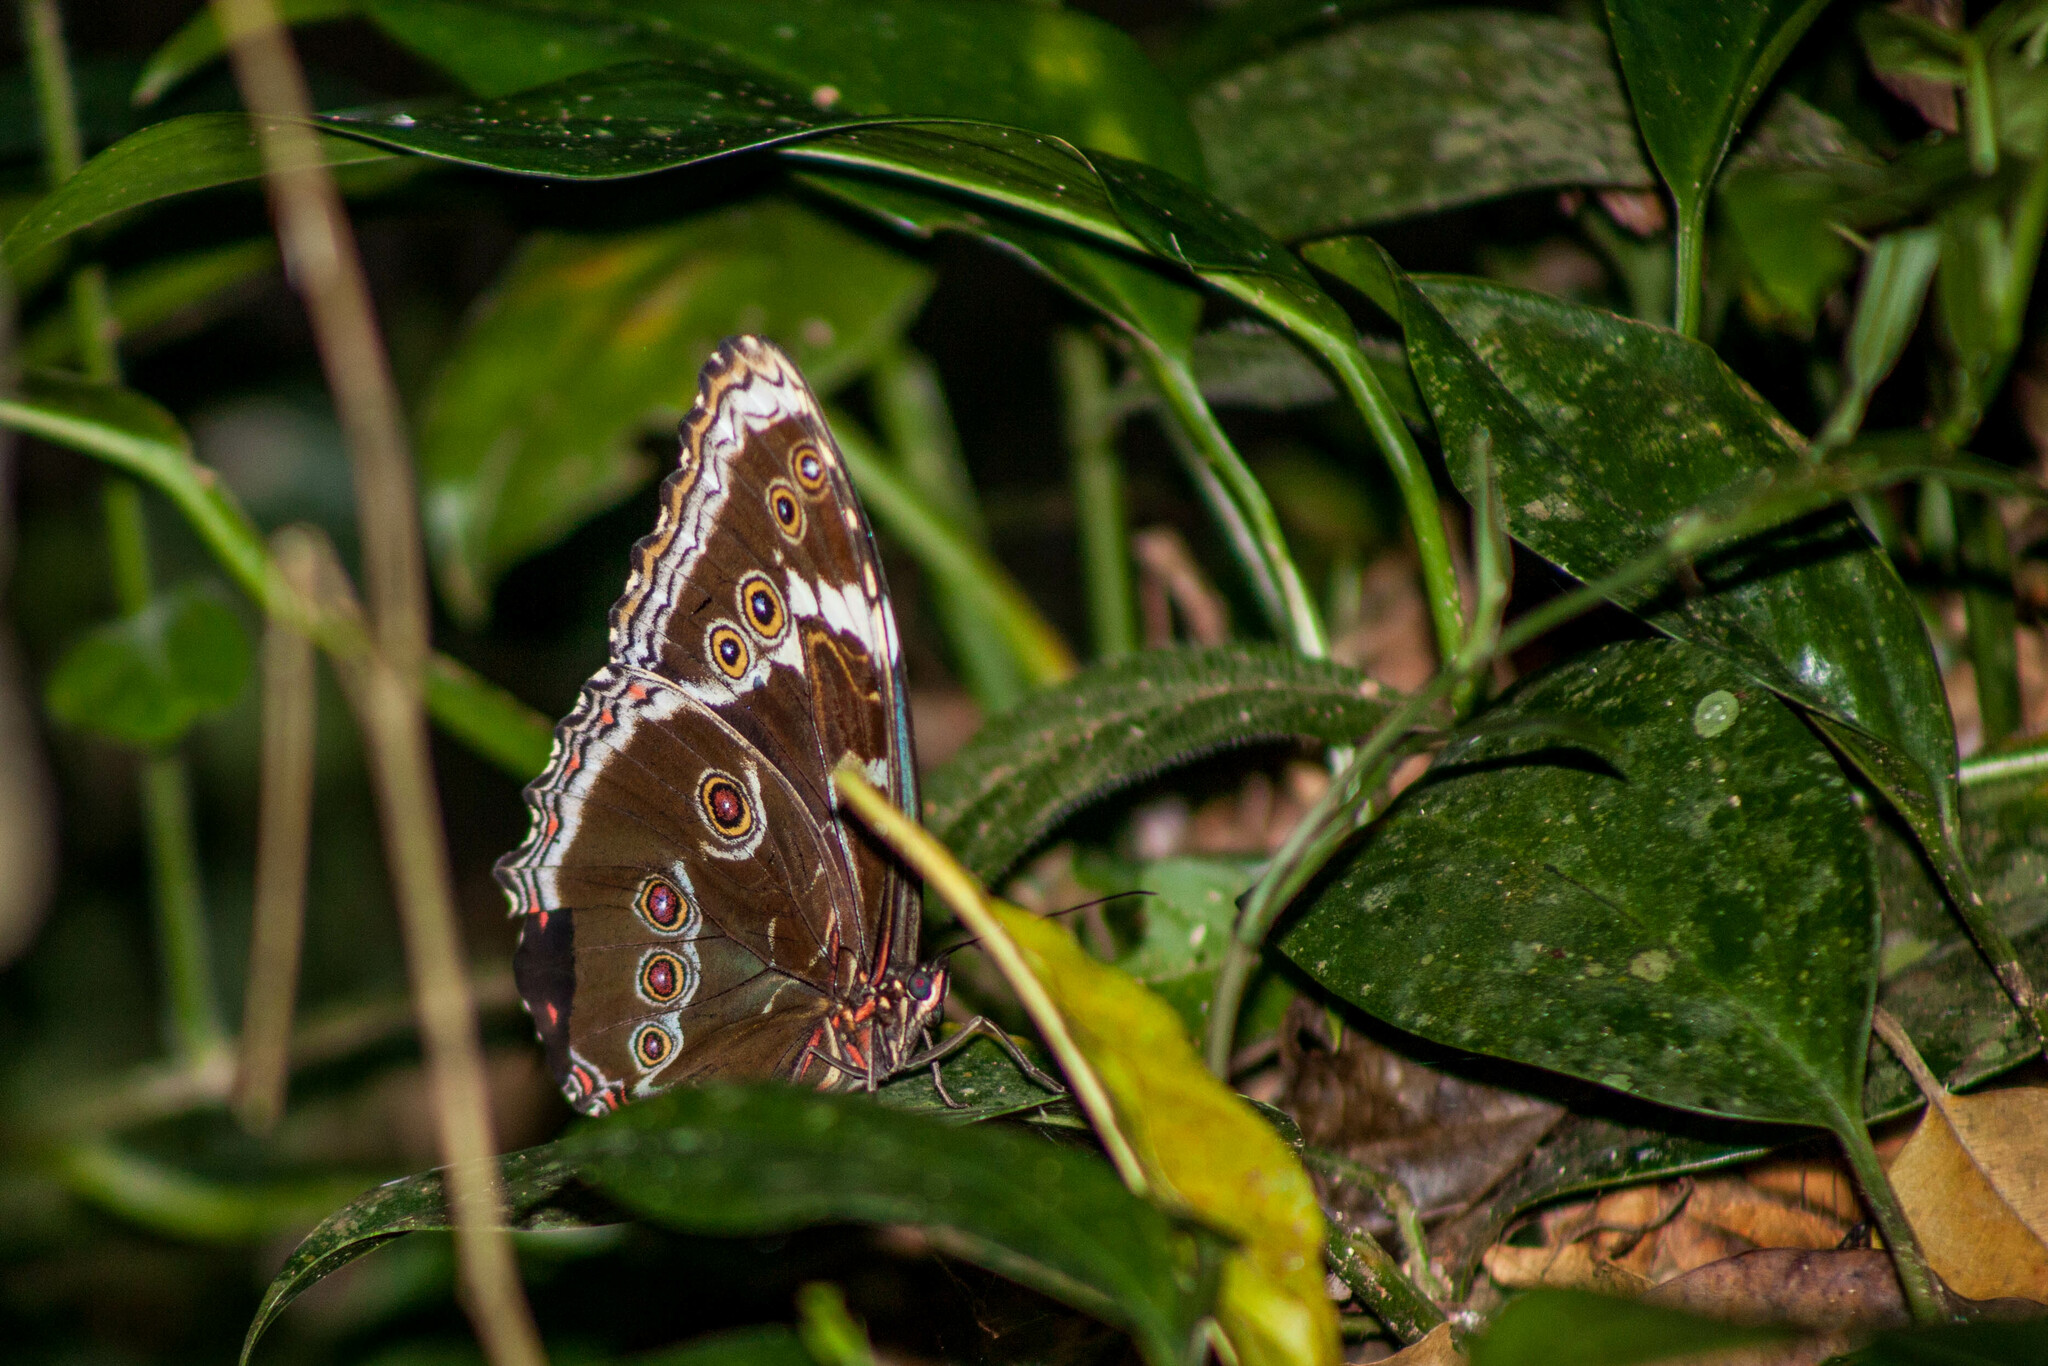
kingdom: Animalia
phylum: Arthropoda
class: Insecta
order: Lepidoptera
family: Nymphalidae
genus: Morpho
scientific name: Morpho helenor
